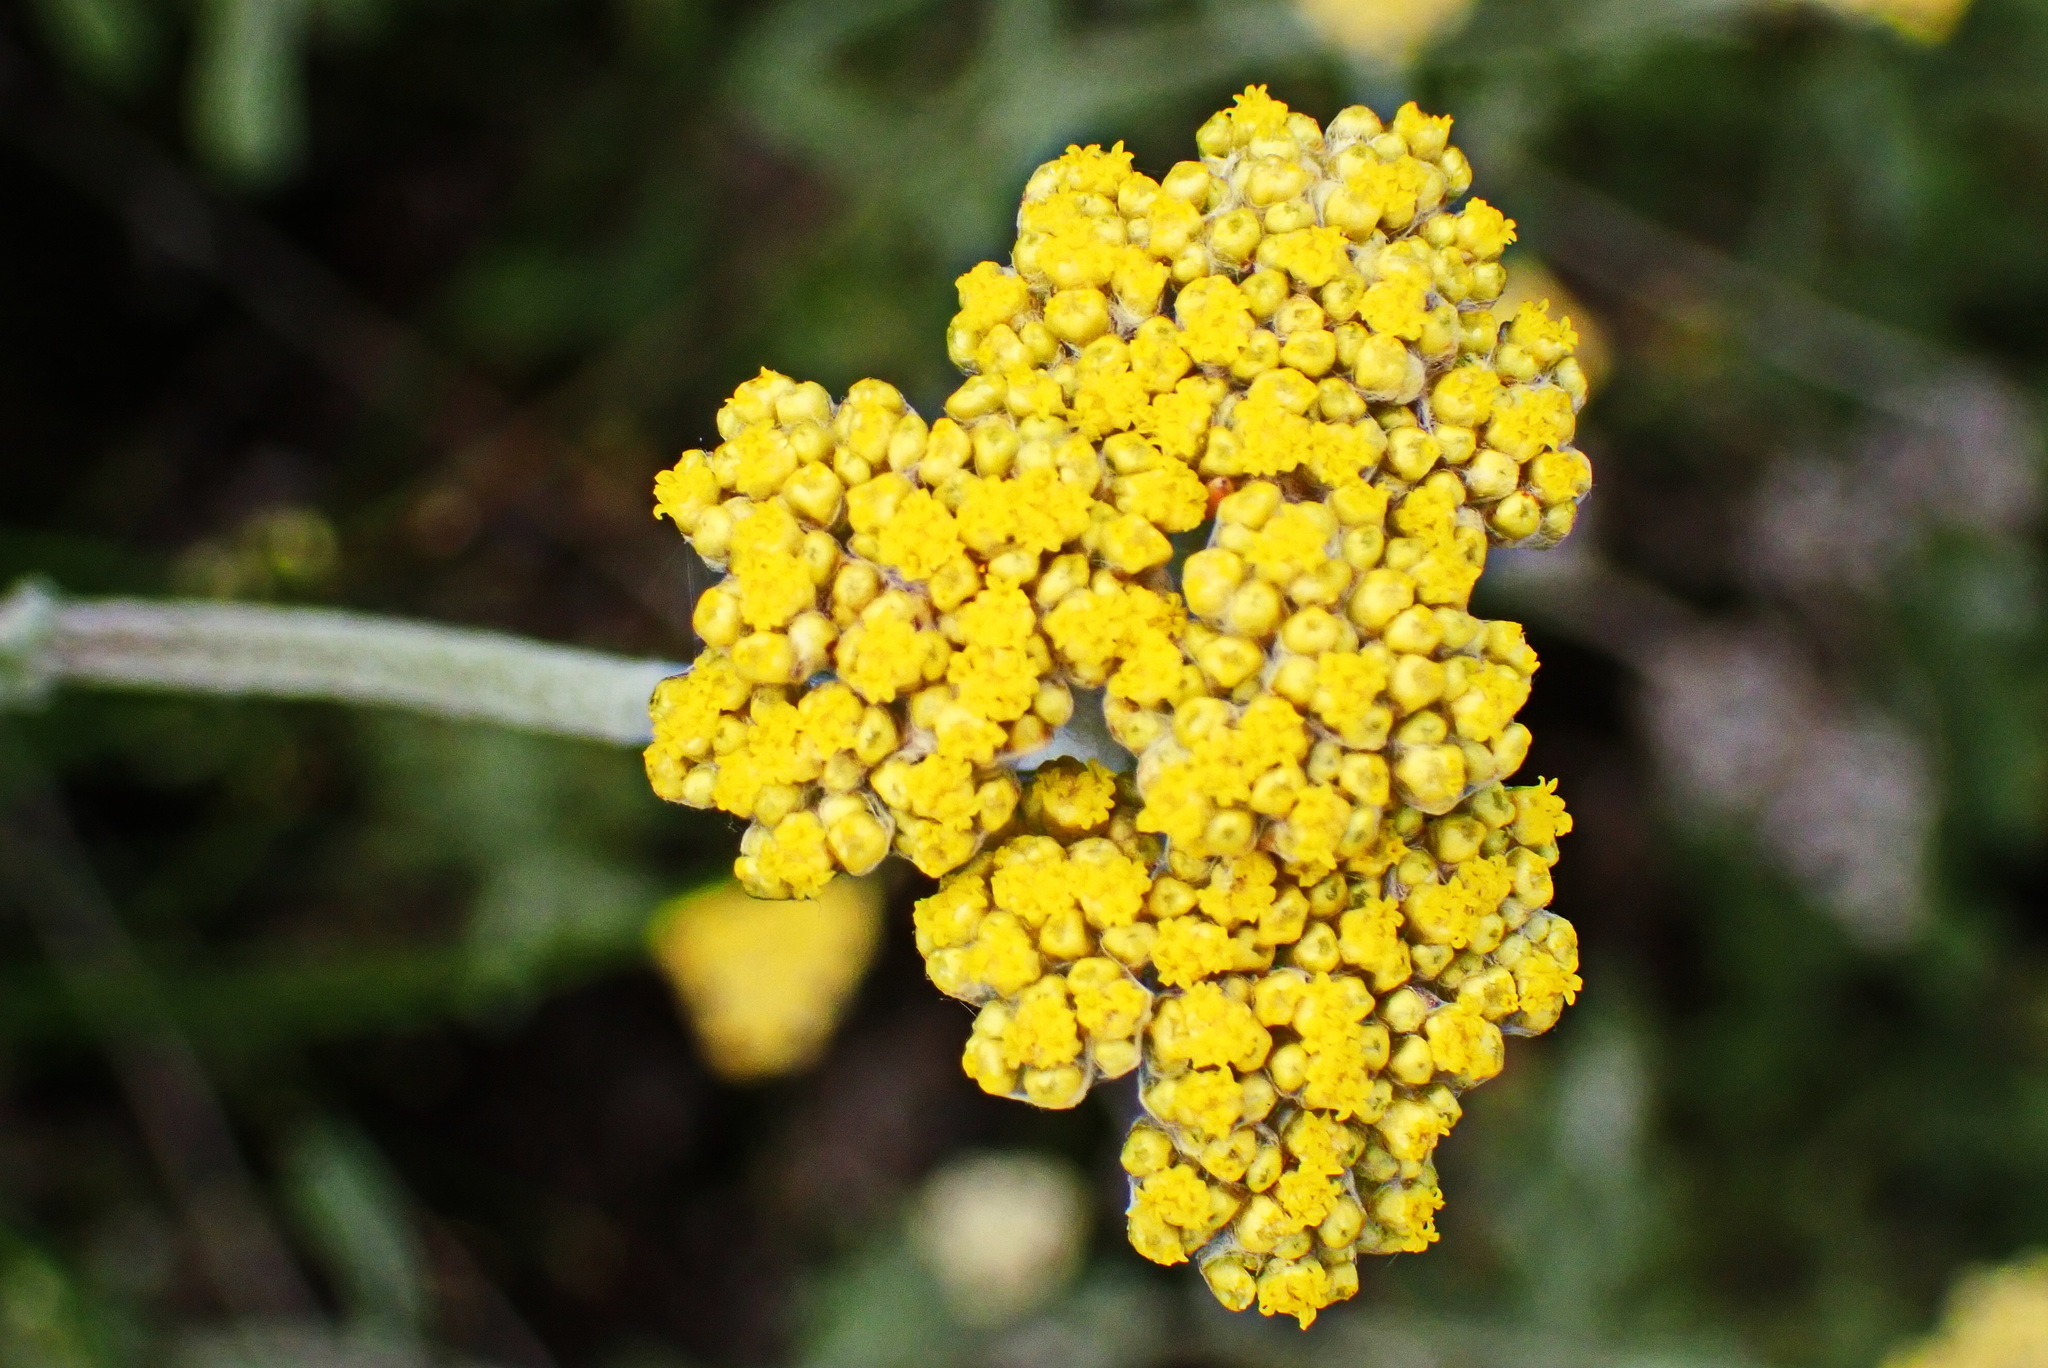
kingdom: Plantae
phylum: Tracheophyta
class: Magnoliopsida
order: Asterales
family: Asteraceae
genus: Helichrysum
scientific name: Helichrysum odoratissimum
